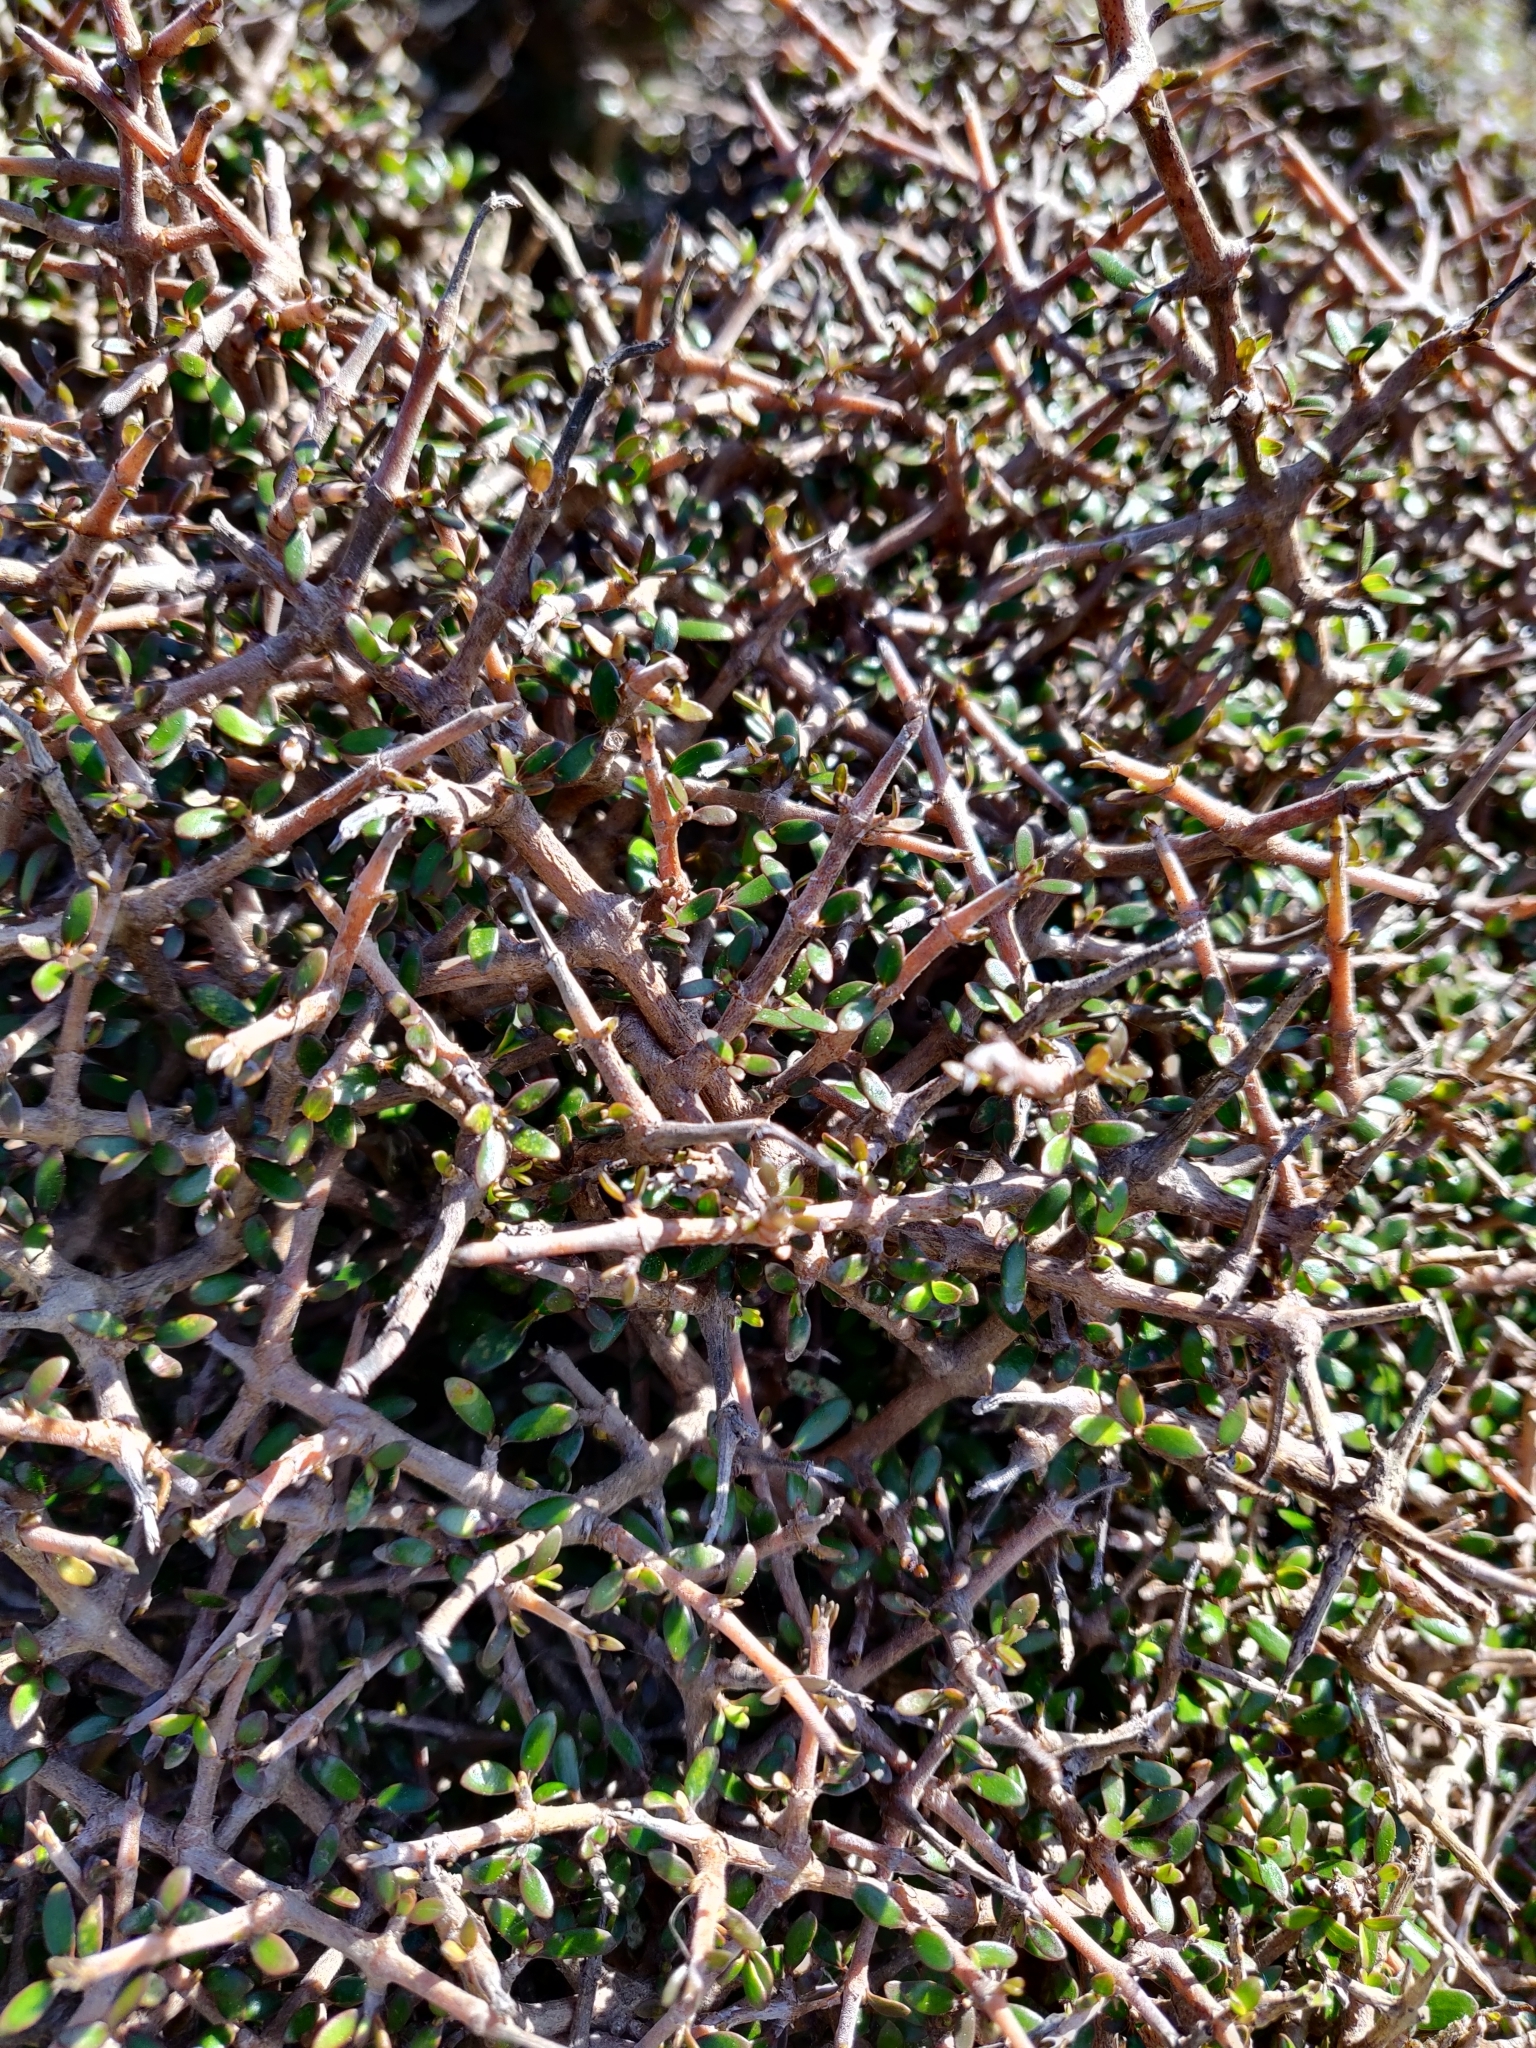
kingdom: Plantae
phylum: Tracheophyta
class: Magnoliopsida
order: Gentianales
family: Rubiaceae
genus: Coprosma
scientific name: Coprosma propinqua
